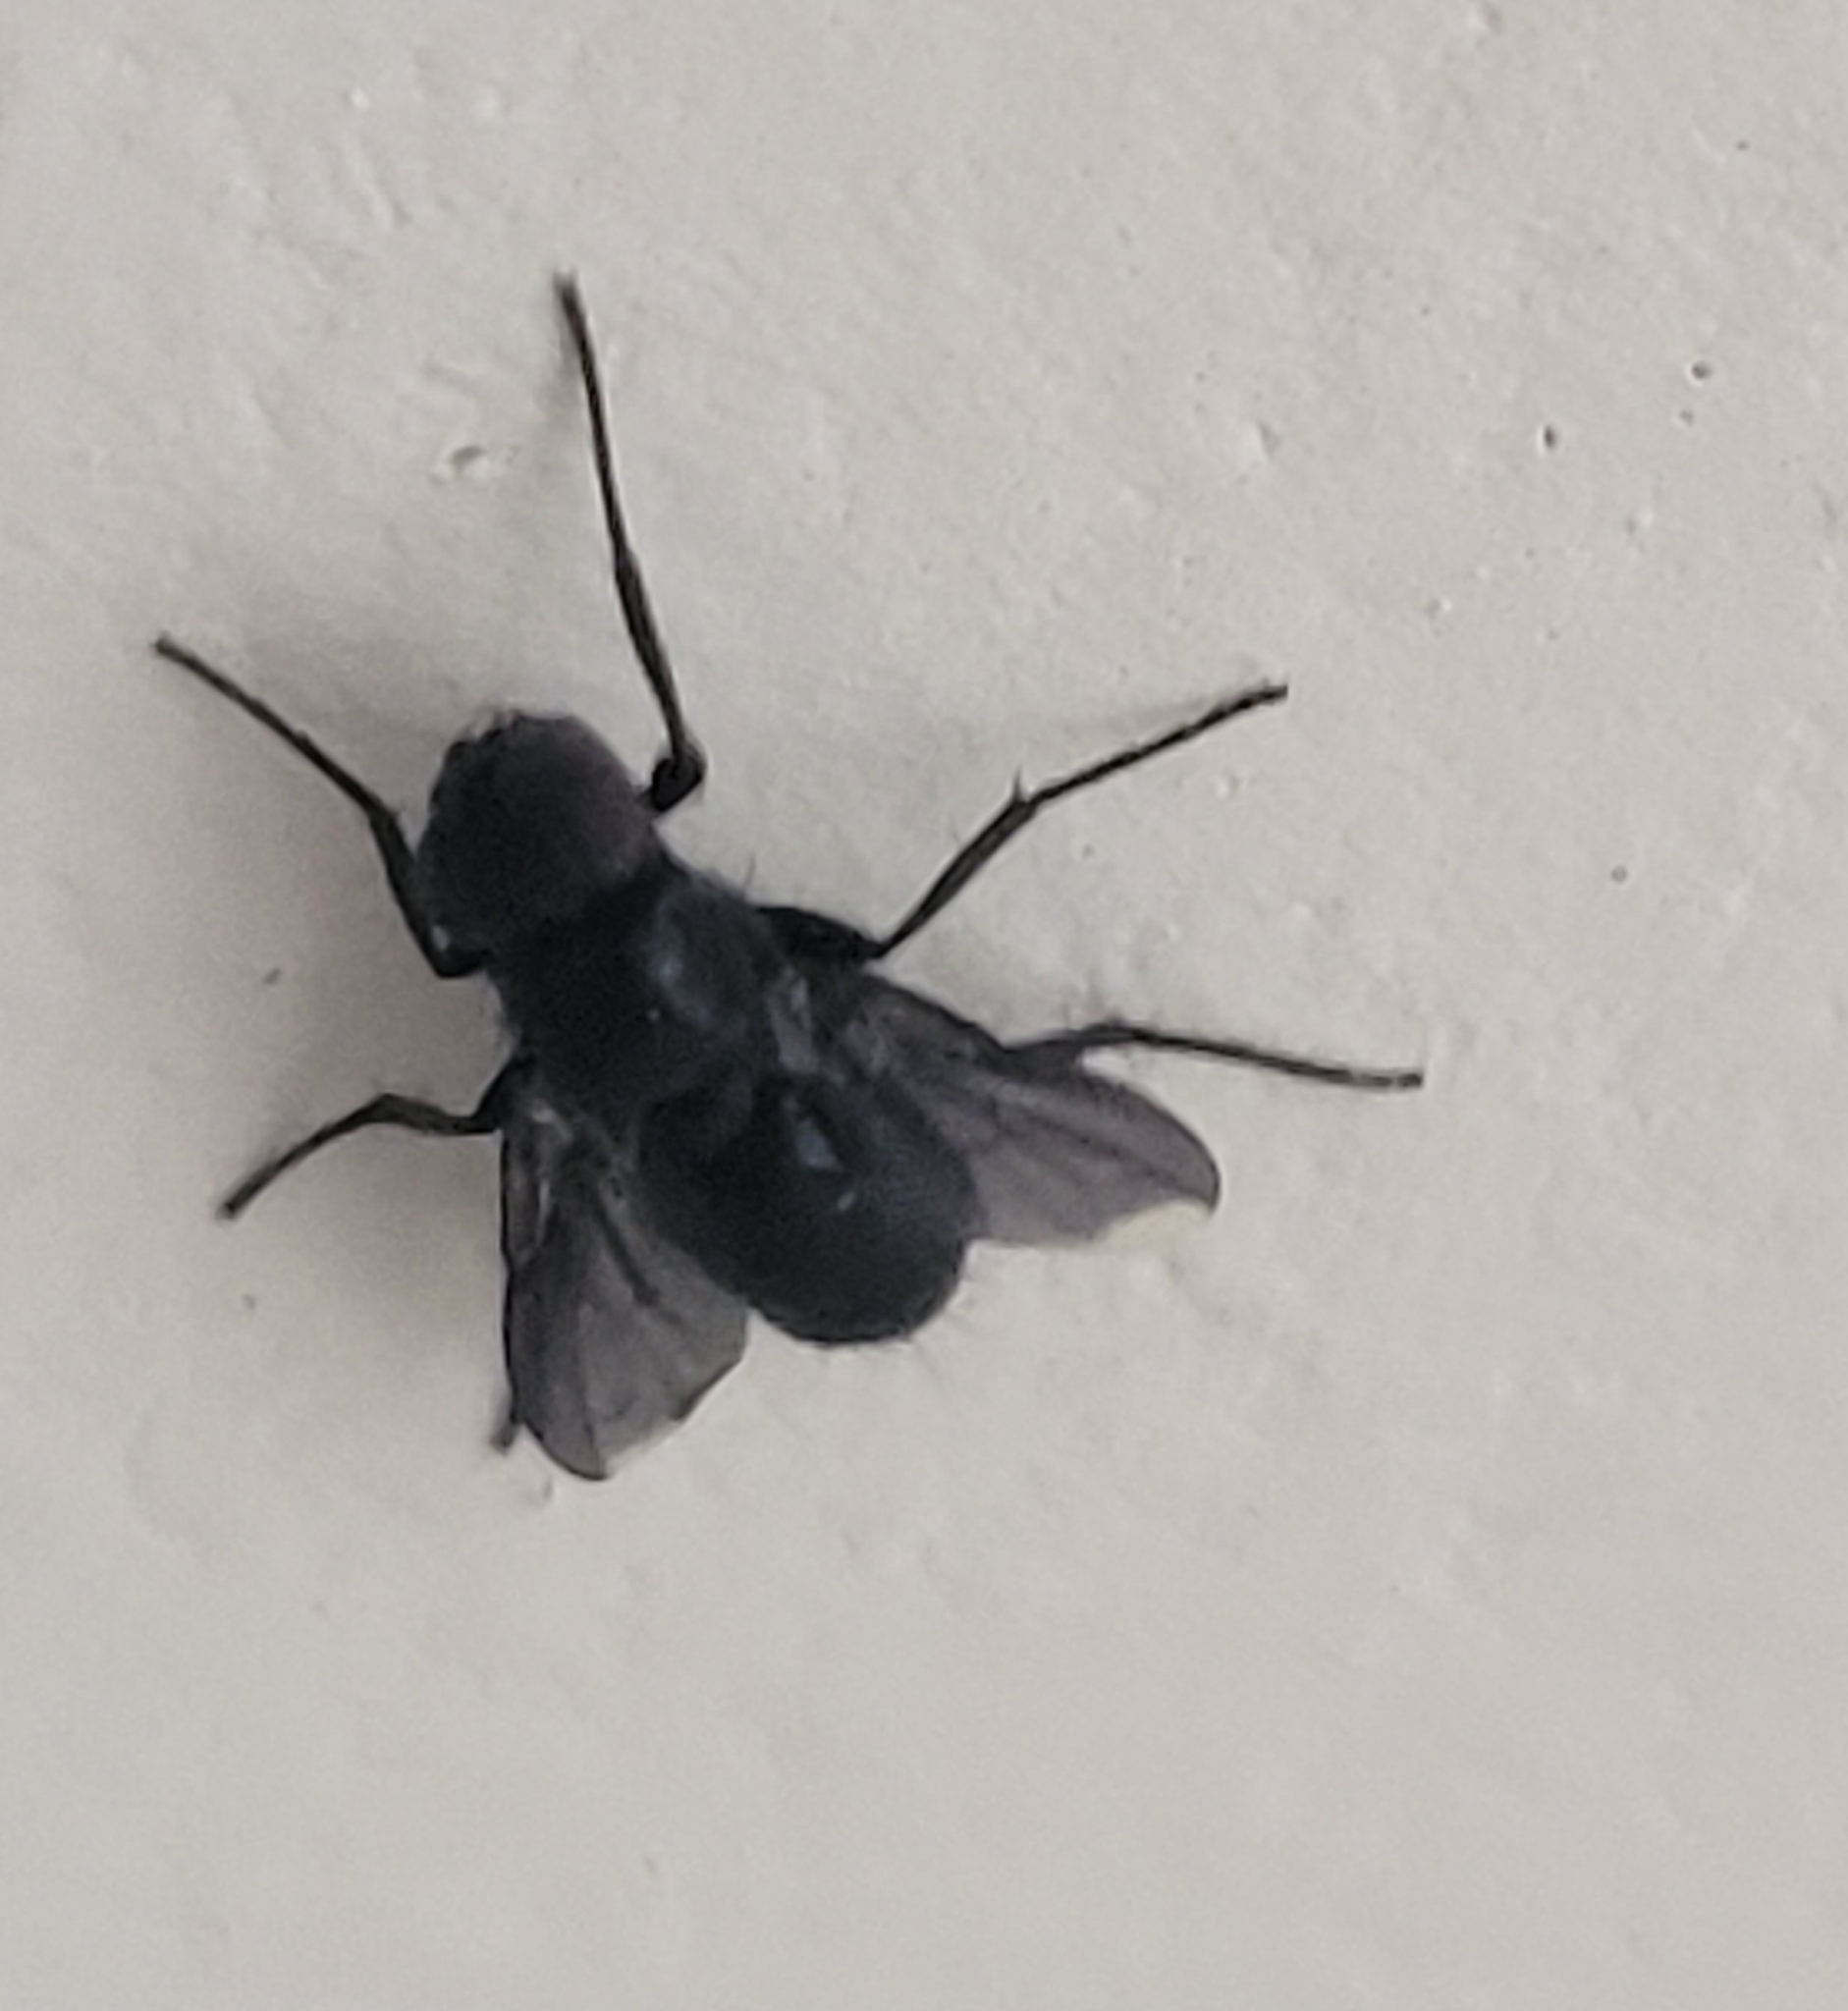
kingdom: Animalia
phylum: Arthropoda
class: Insecta
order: Diptera
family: Calliphoridae
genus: Melanophora
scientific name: Melanophora roralis
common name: Smoky-winged woodlouse-fly
